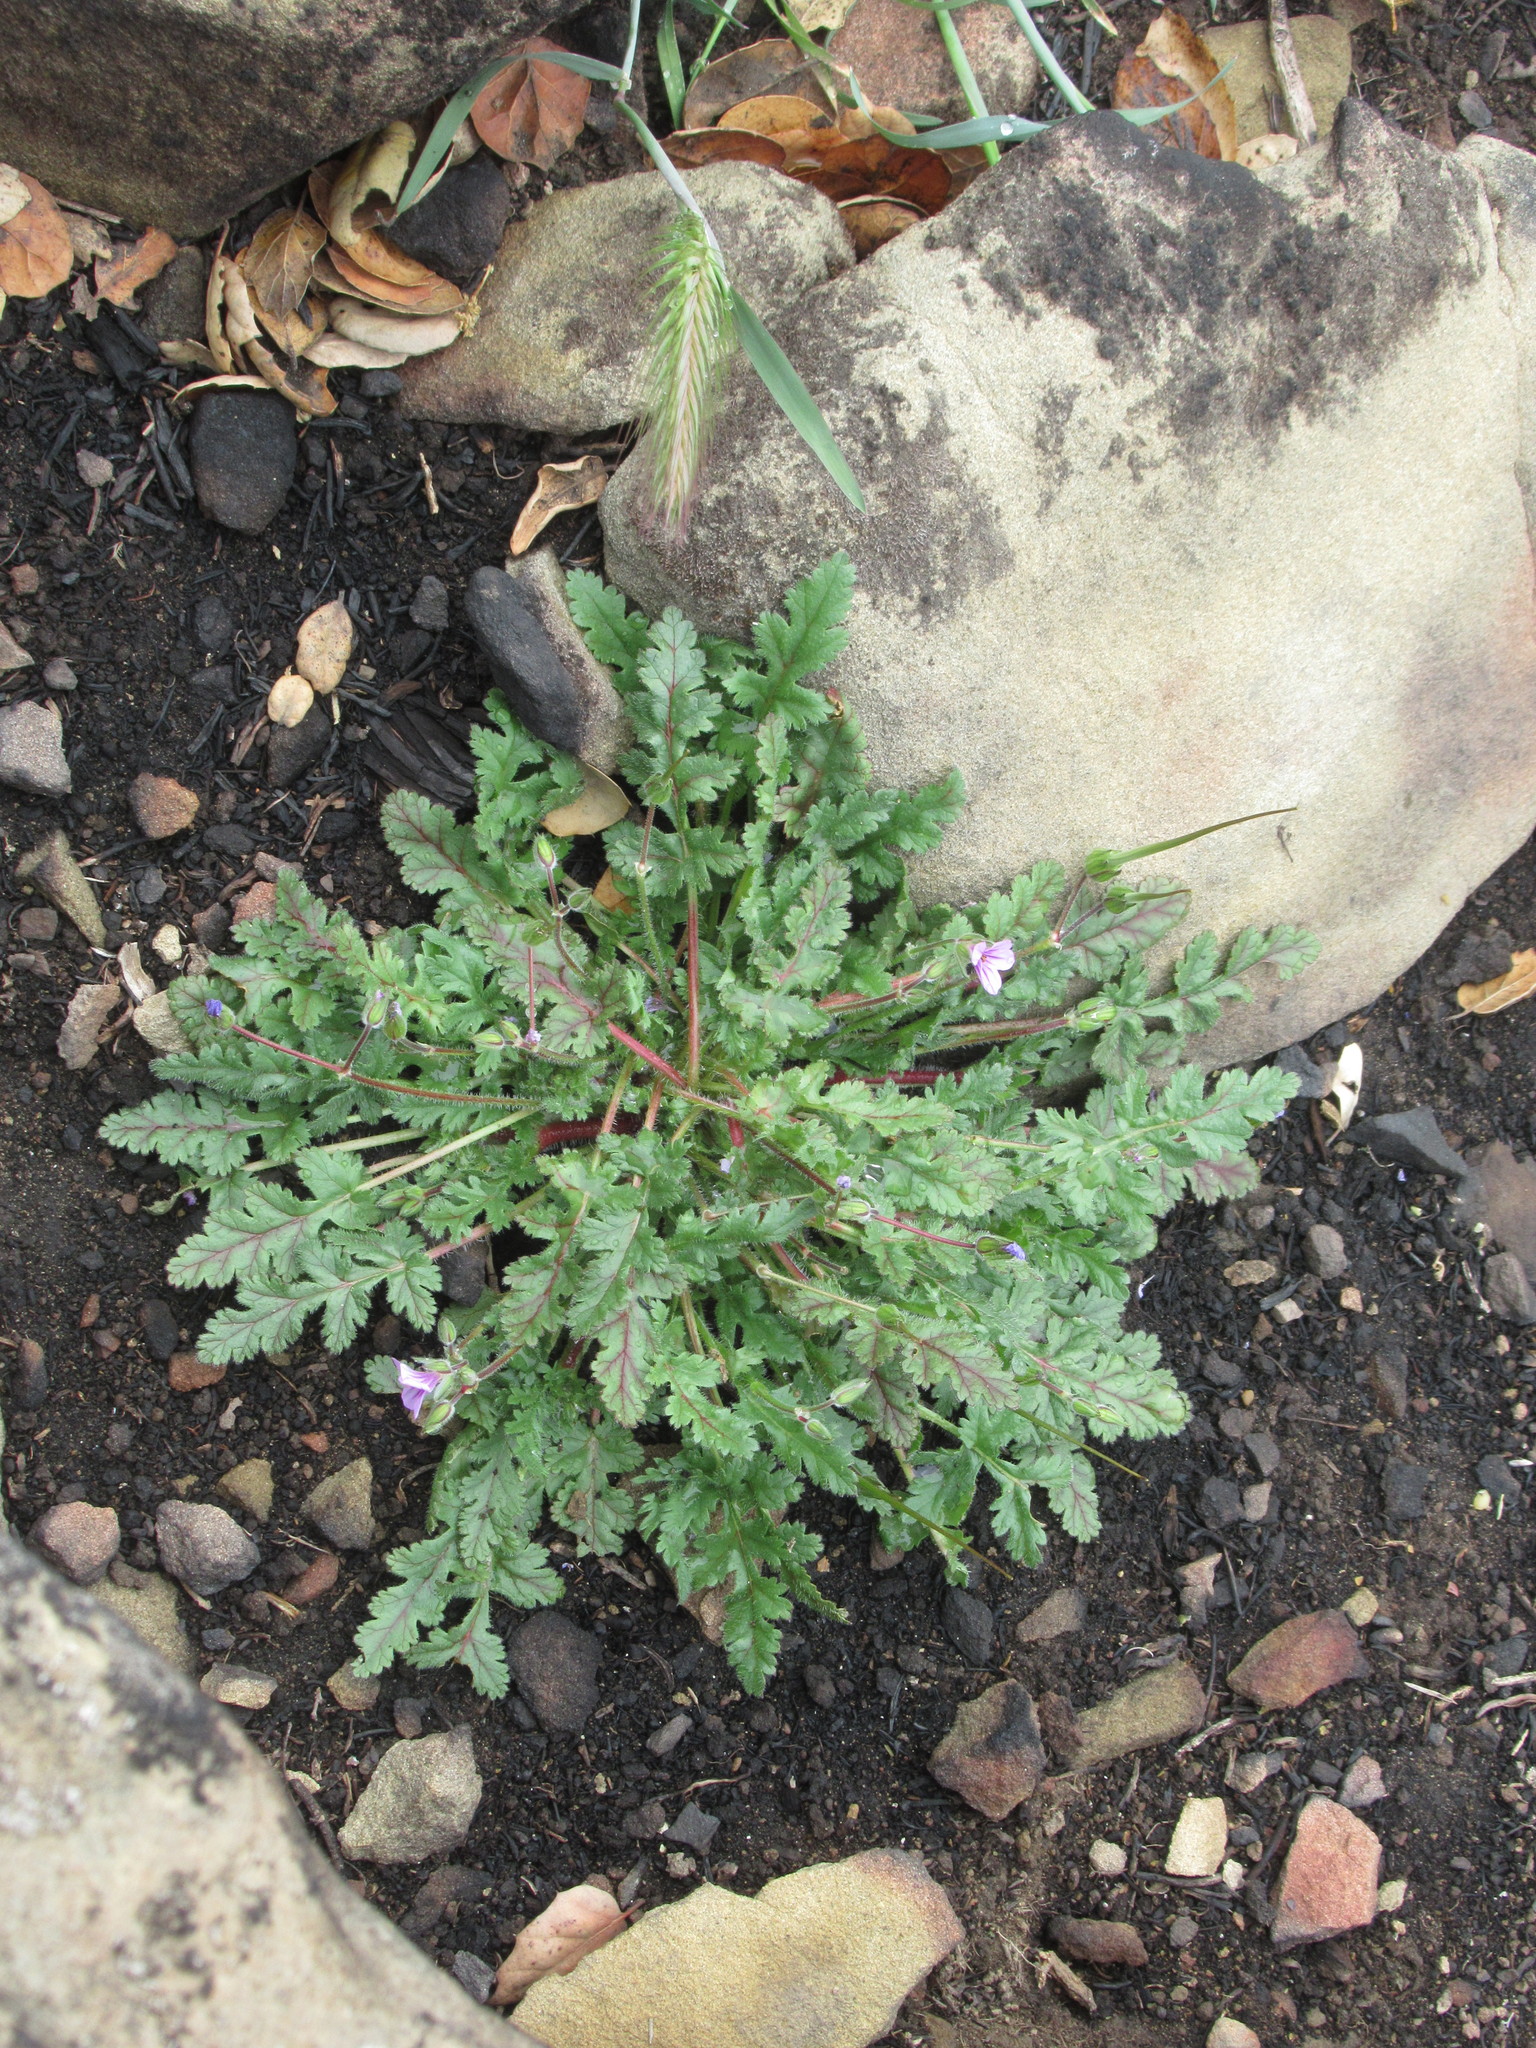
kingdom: Plantae
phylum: Tracheophyta
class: Magnoliopsida
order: Geraniales
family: Geraniaceae
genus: Erodium
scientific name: Erodium botrys
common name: Mediterranean stork's-bill
